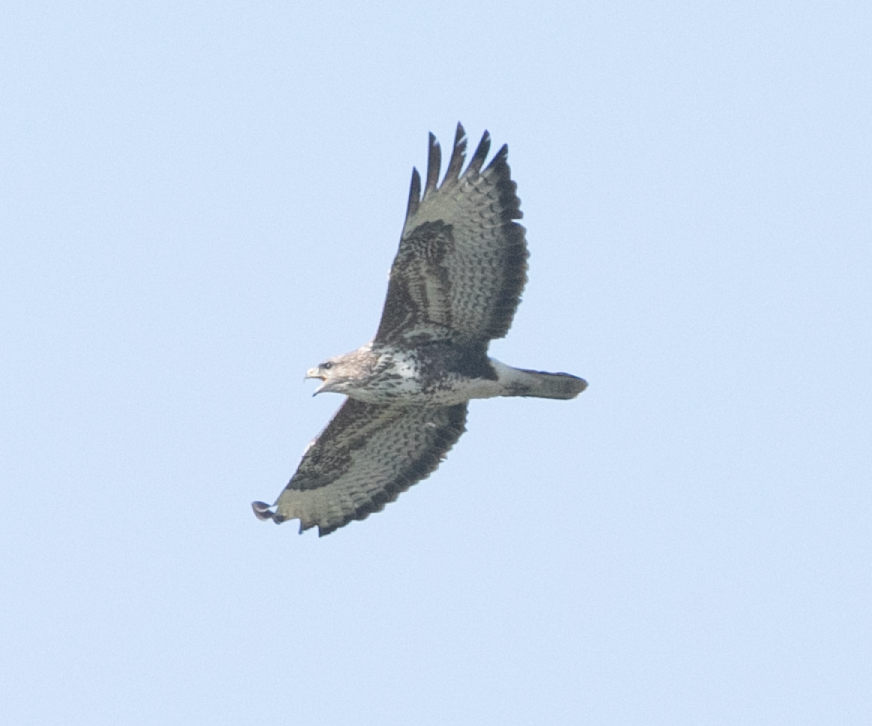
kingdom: Animalia
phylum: Chordata
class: Aves
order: Accipitriformes
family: Accipitridae
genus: Buteo
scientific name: Buteo buteo
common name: Common buzzard
